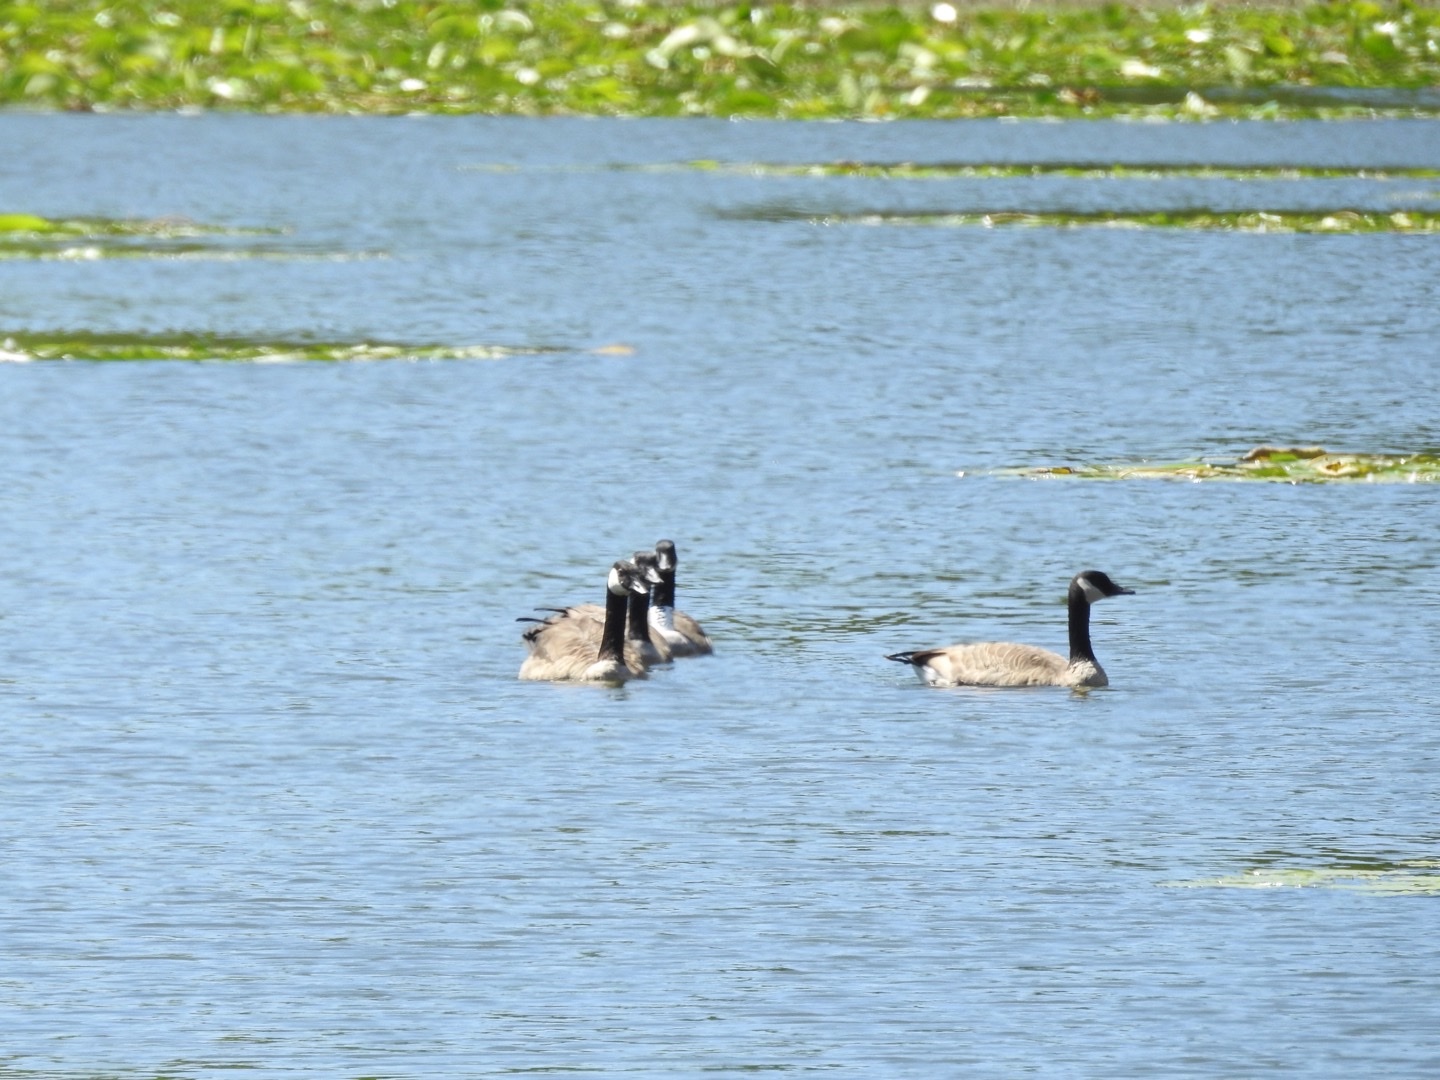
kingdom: Animalia
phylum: Chordata
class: Aves
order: Anseriformes
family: Anatidae
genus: Branta
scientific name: Branta canadensis
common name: Canada goose
